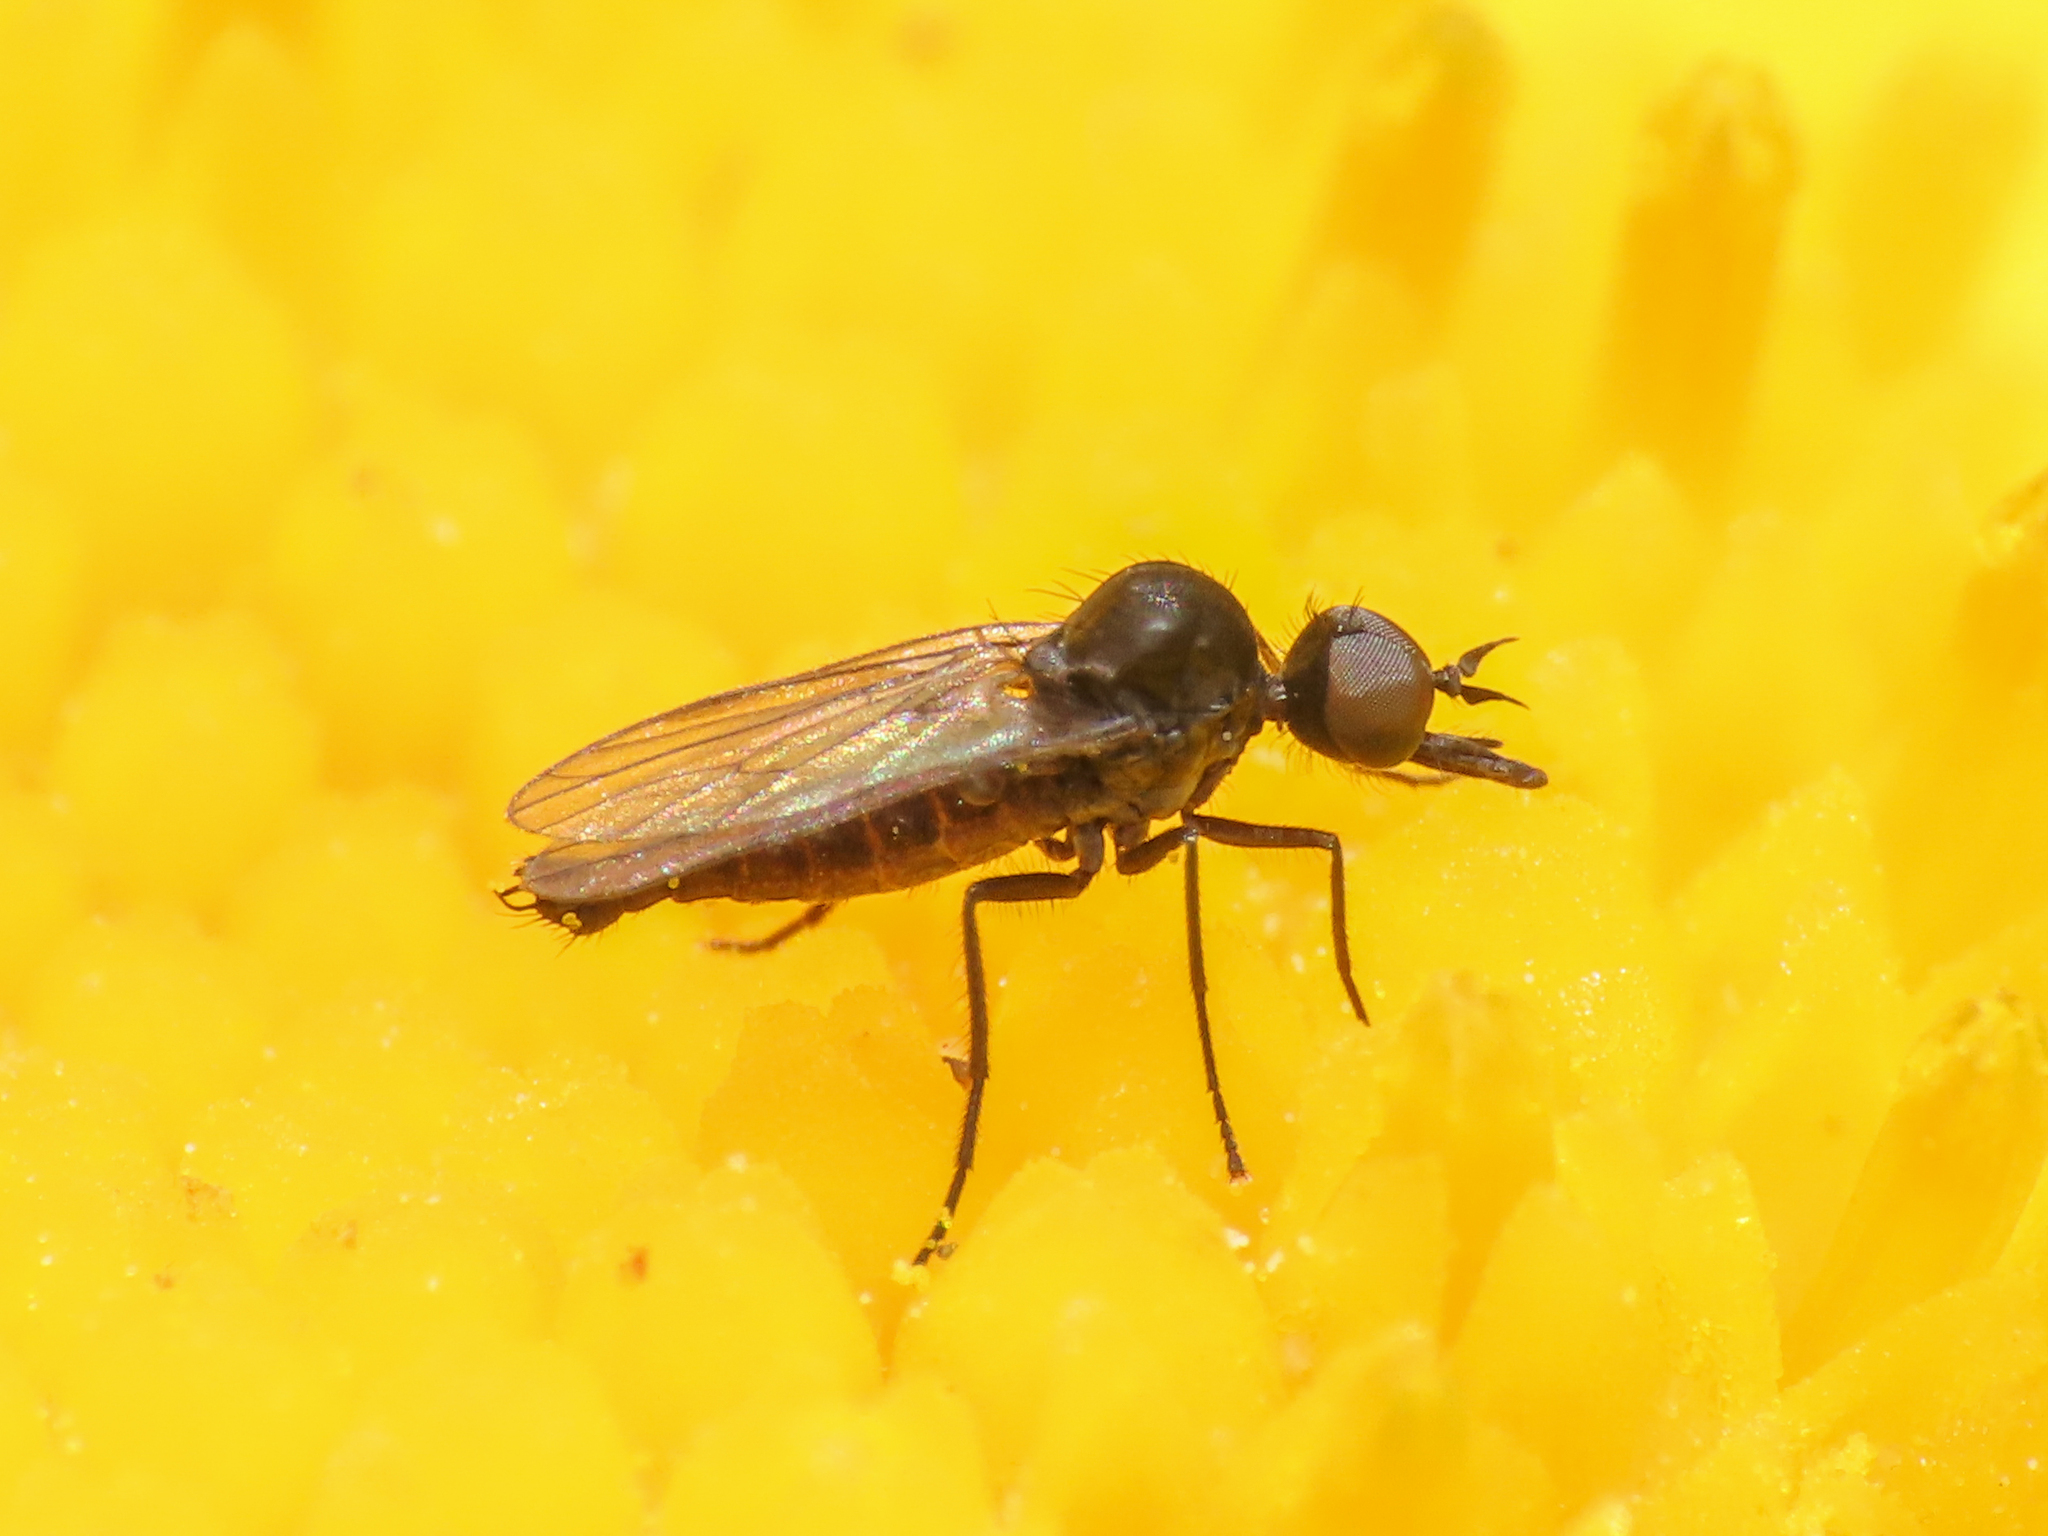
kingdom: Animalia
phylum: Arthropoda
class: Insecta
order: Diptera
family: Iteaphilidae
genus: Paraiteaphila
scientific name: Paraiteaphila italica
